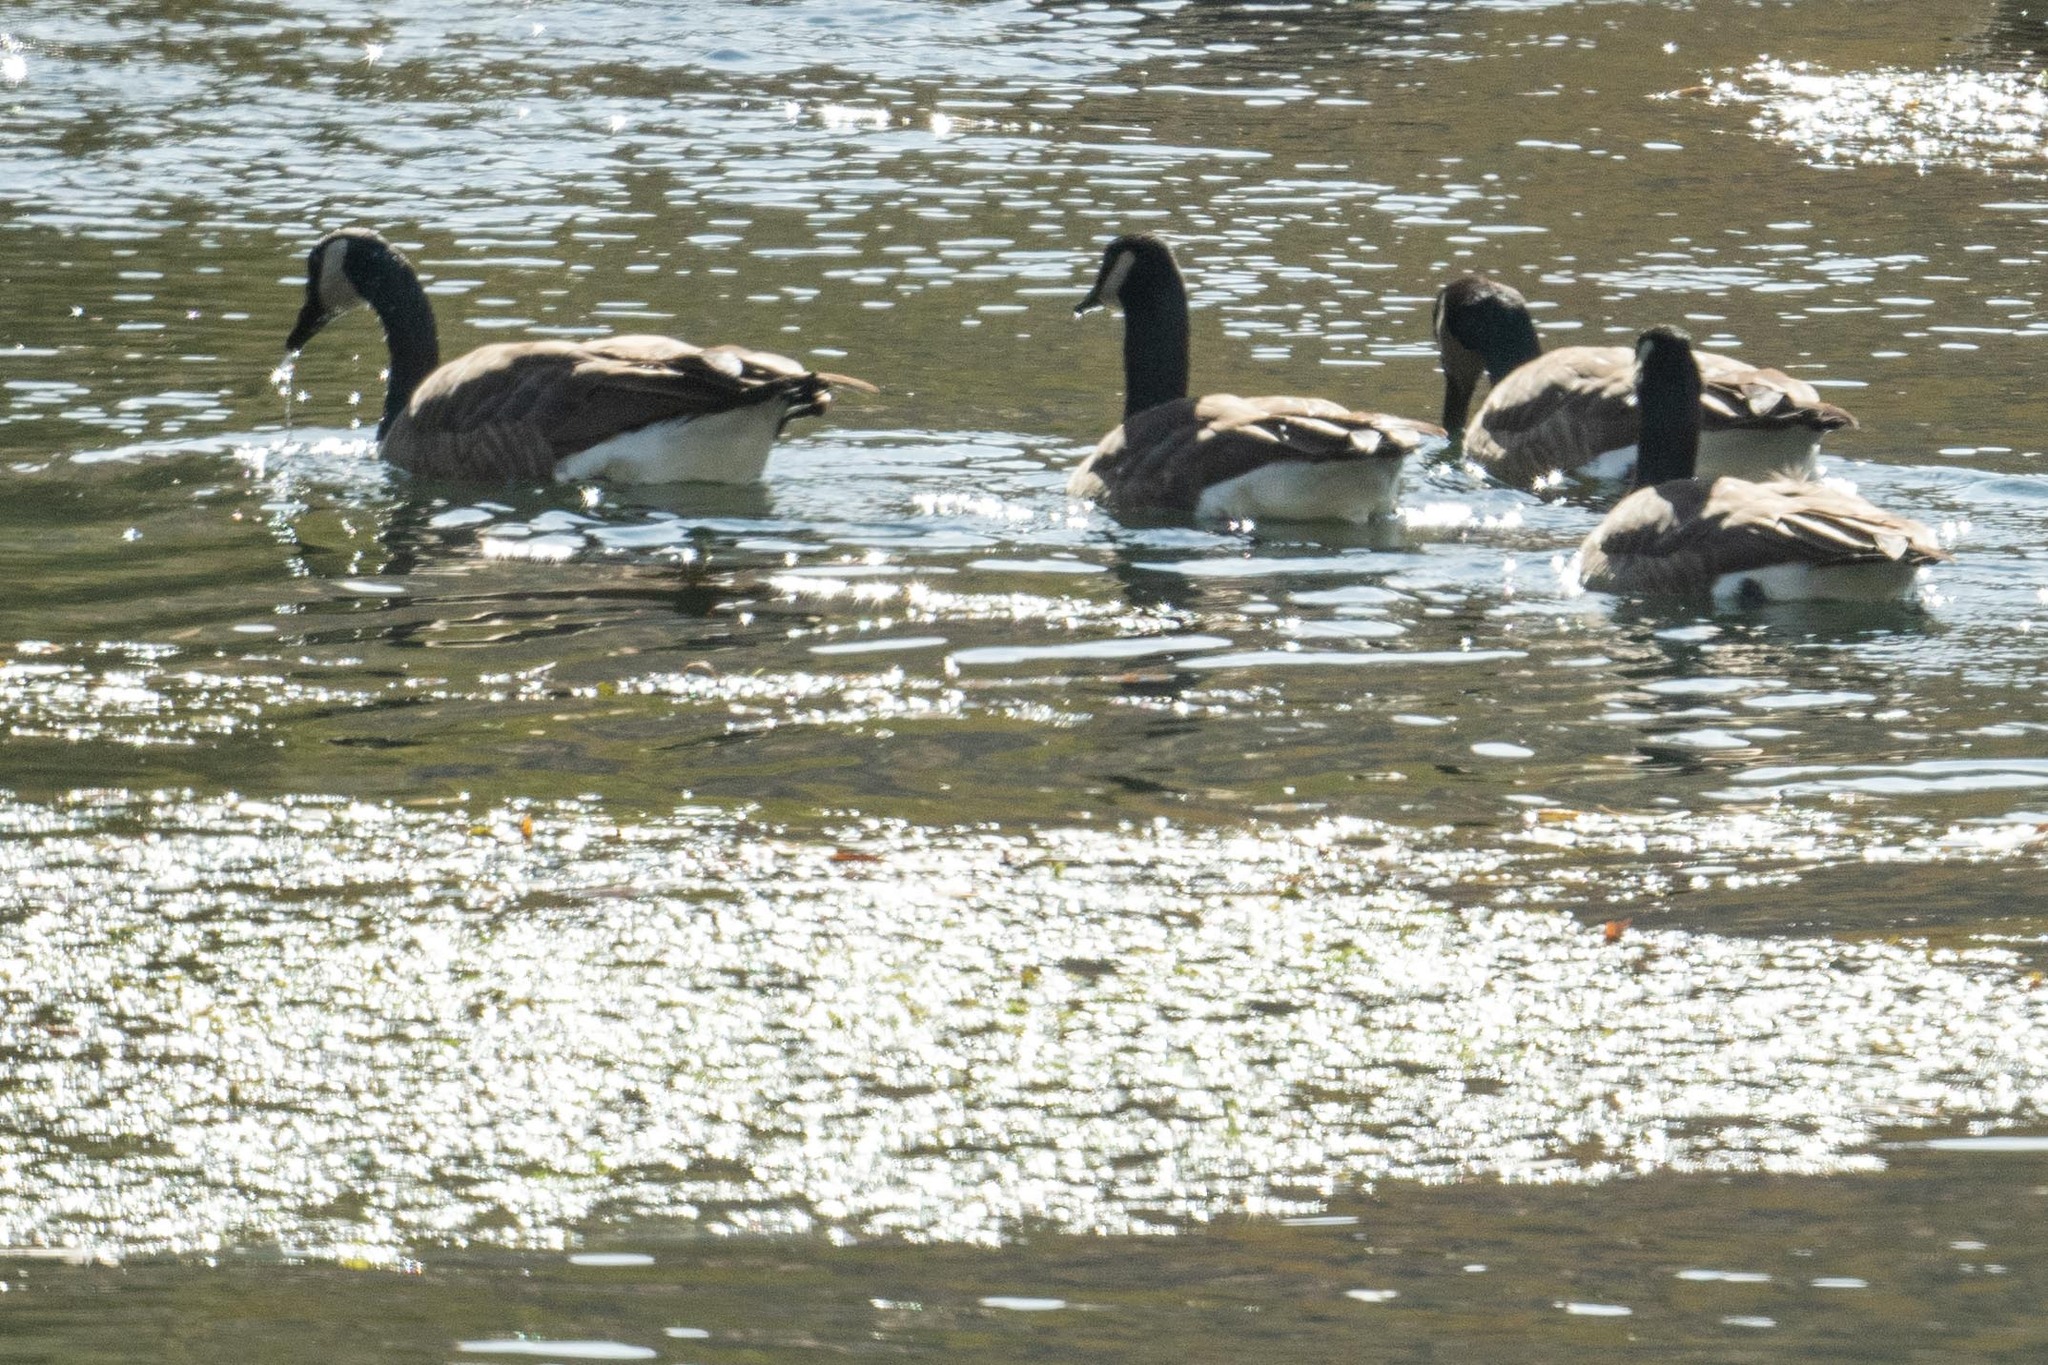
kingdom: Animalia
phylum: Chordata
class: Aves
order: Anseriformes
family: Anatidae
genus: Branta
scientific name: Branta canadensis
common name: Canada goose
